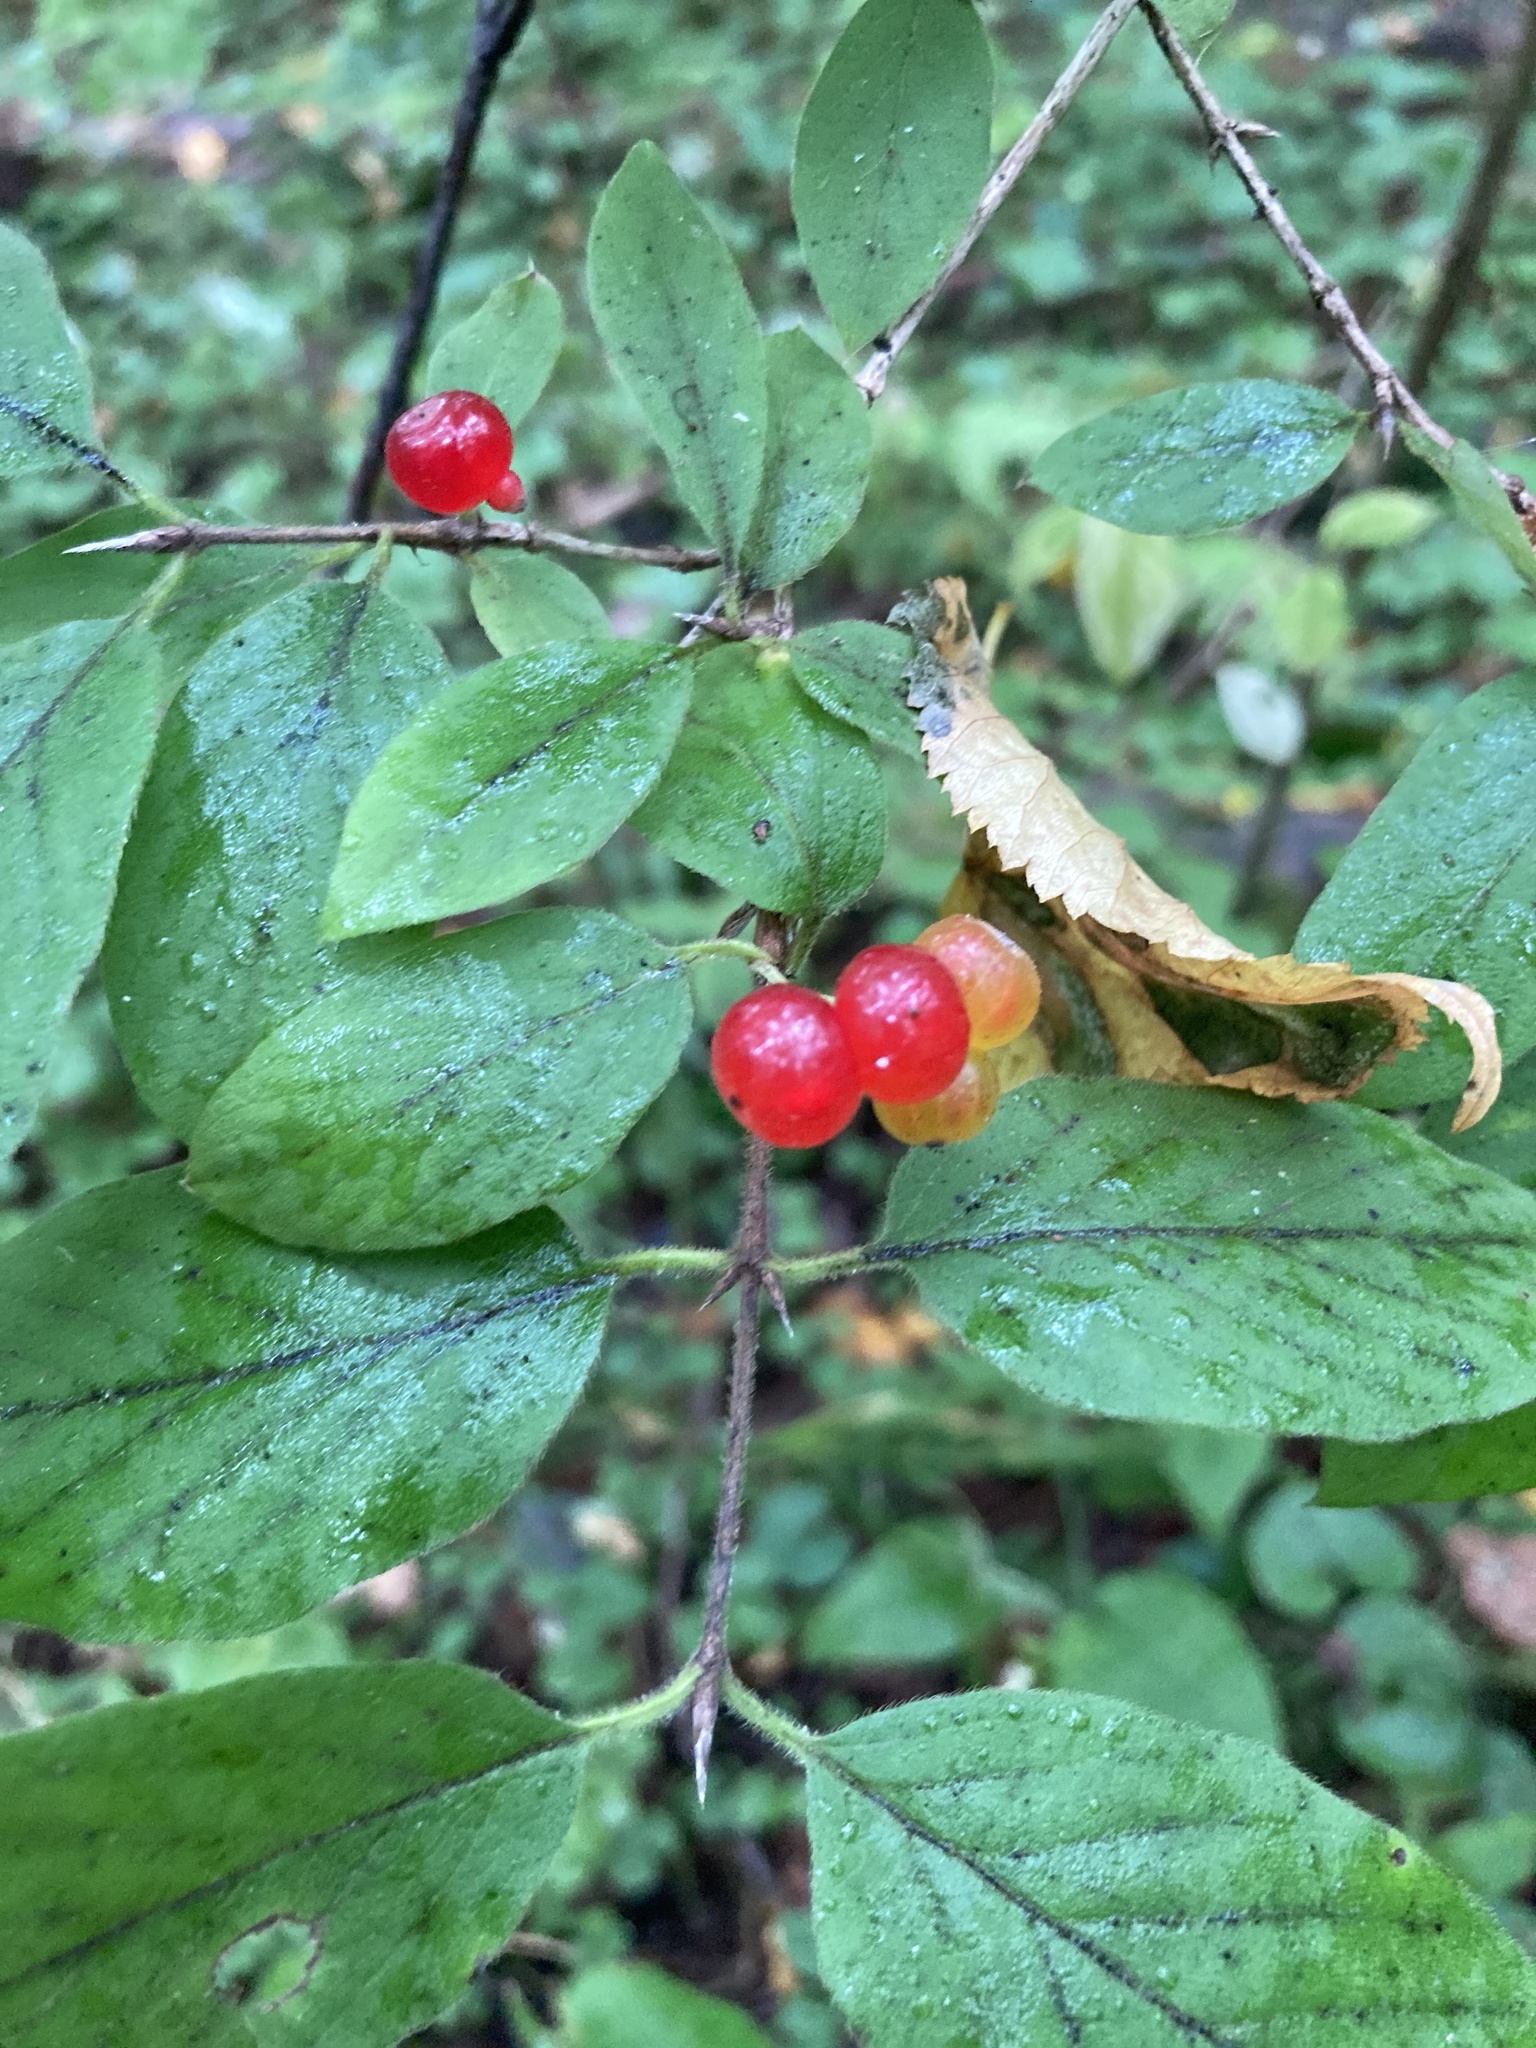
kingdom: Plantae
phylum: Tracheophyta
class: Magnoliopsida
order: Dipsacales
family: Caprifoliaceae
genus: Lonicera
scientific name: Lonicera xylosteum
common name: Fly honeysuckle
